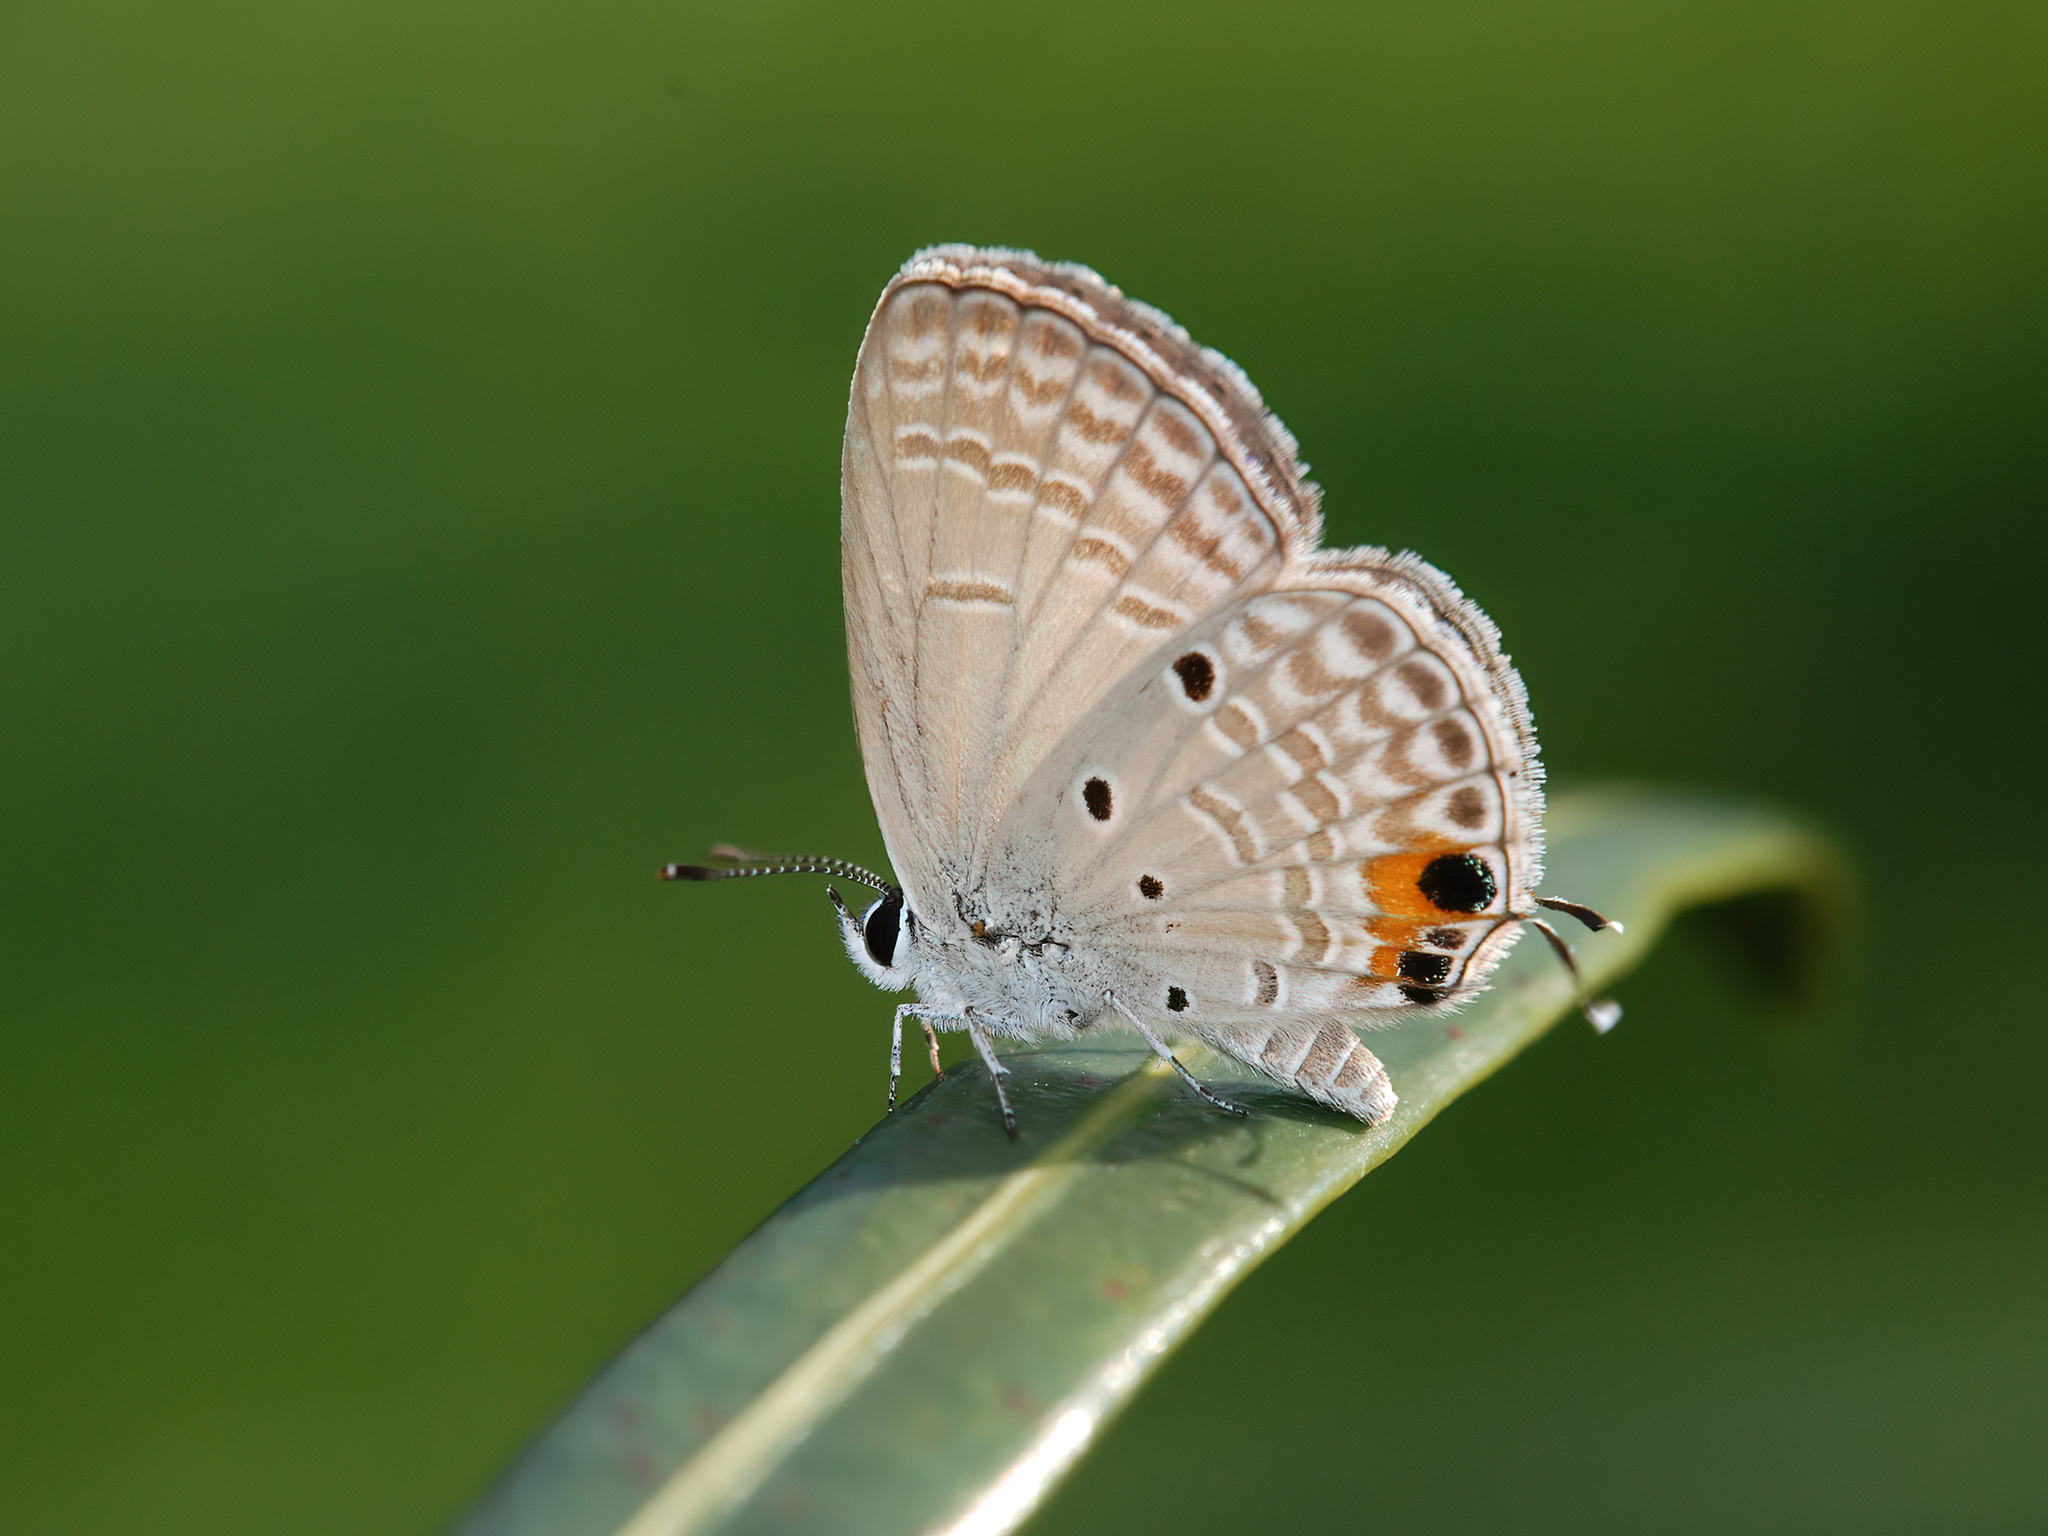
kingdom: Animalia
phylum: Arthropoda
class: Insecta
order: Lepidoptera
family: Lycaenidae
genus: Luthrodes
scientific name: Luthrodes pandava
